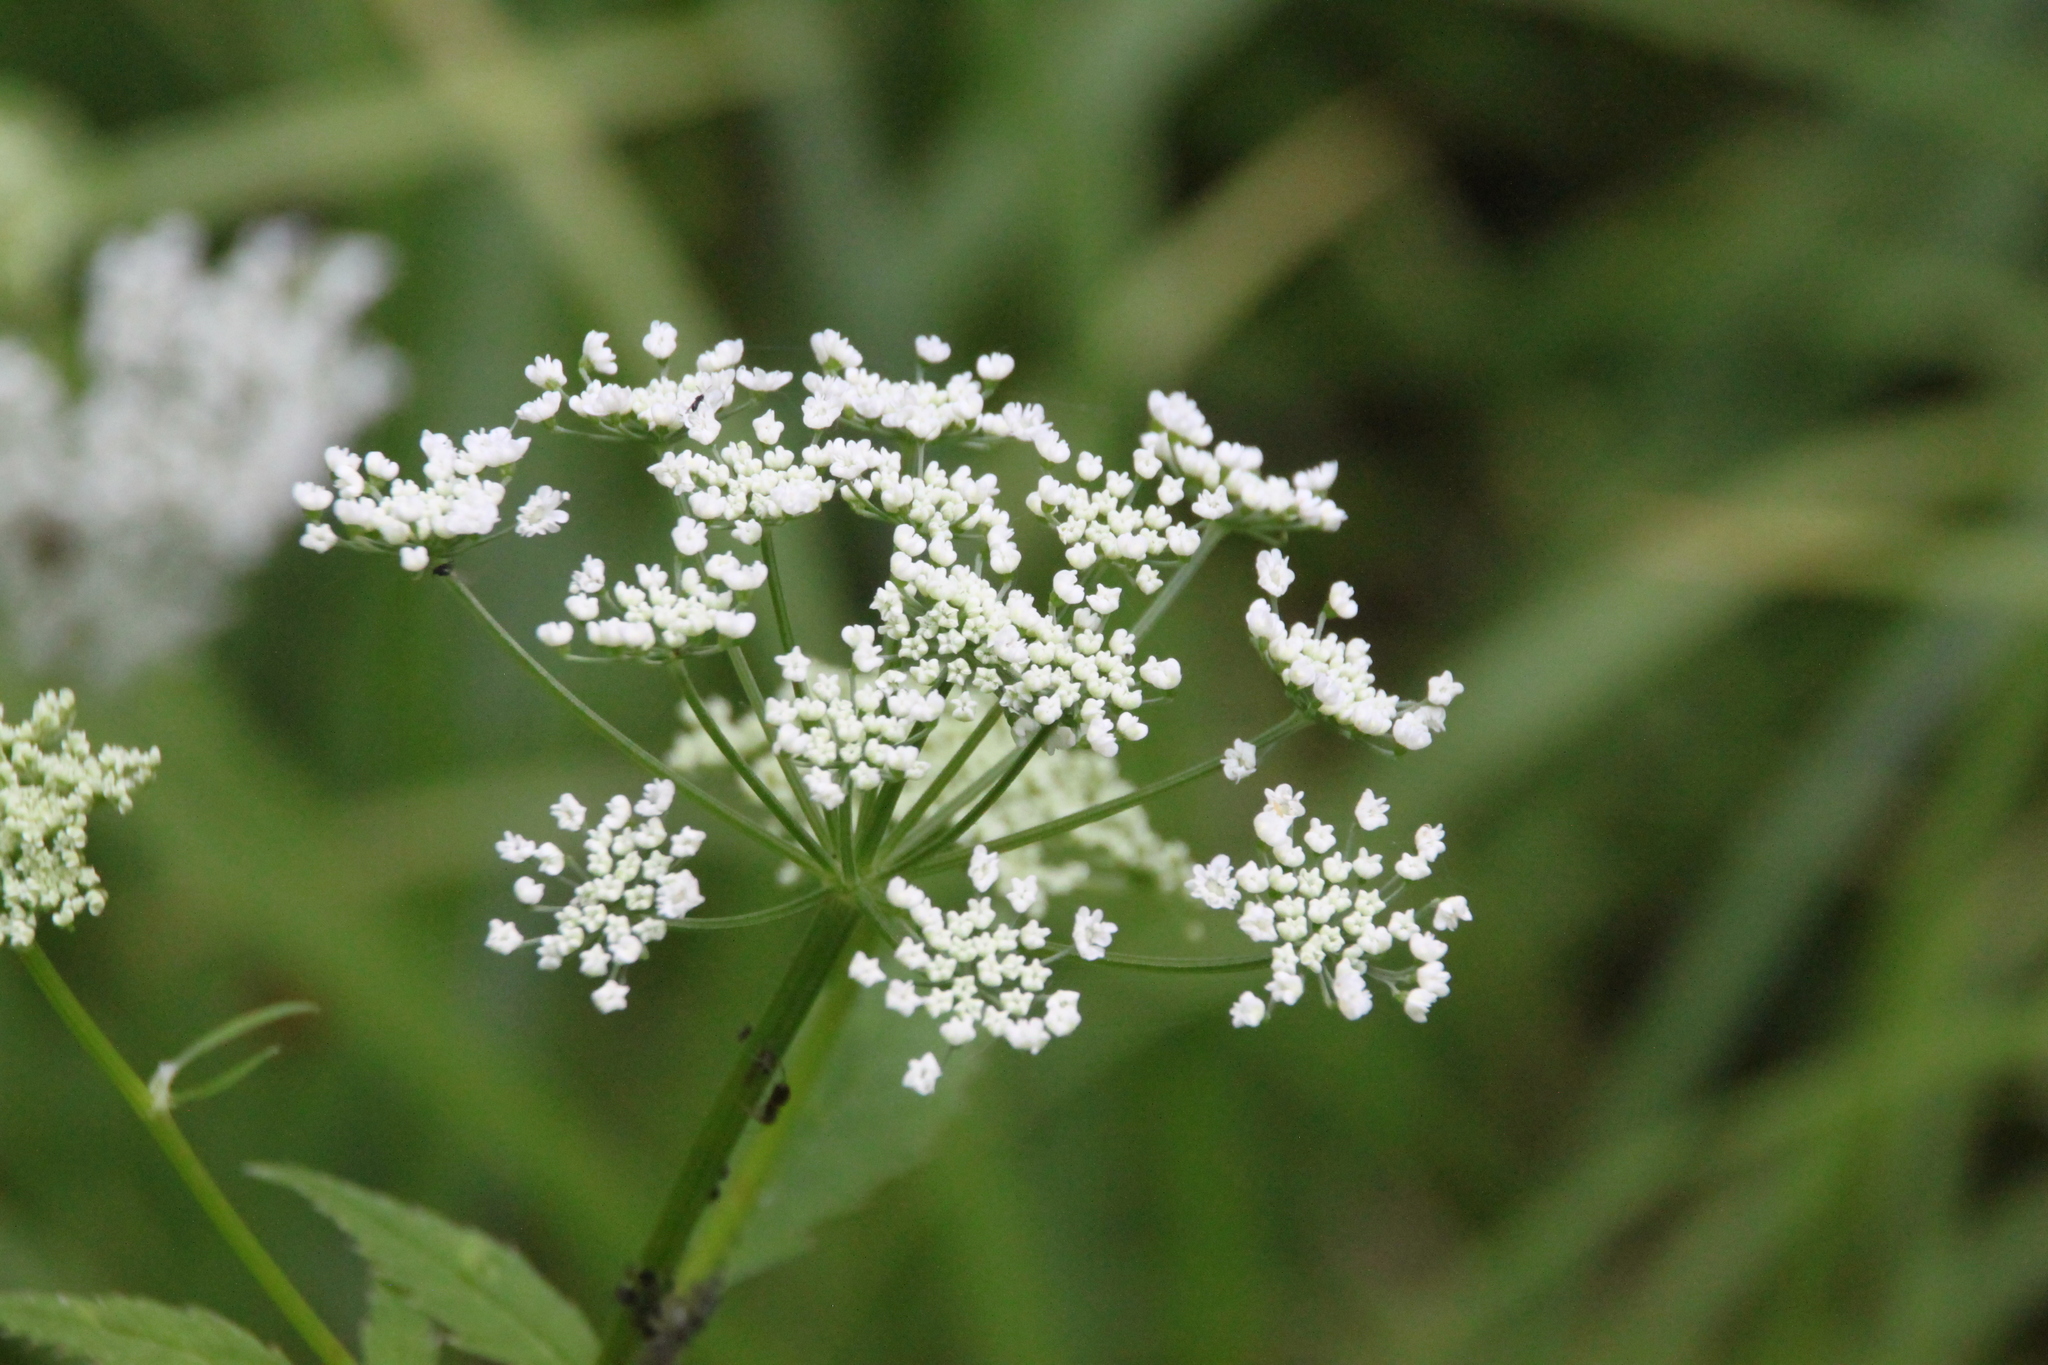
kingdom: Plantae
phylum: Tracheophyta
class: Magnoliopsida
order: Apiales
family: Apiaceae
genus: Aegopodium
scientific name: Aegopodium podagraria
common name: Ground-elder
